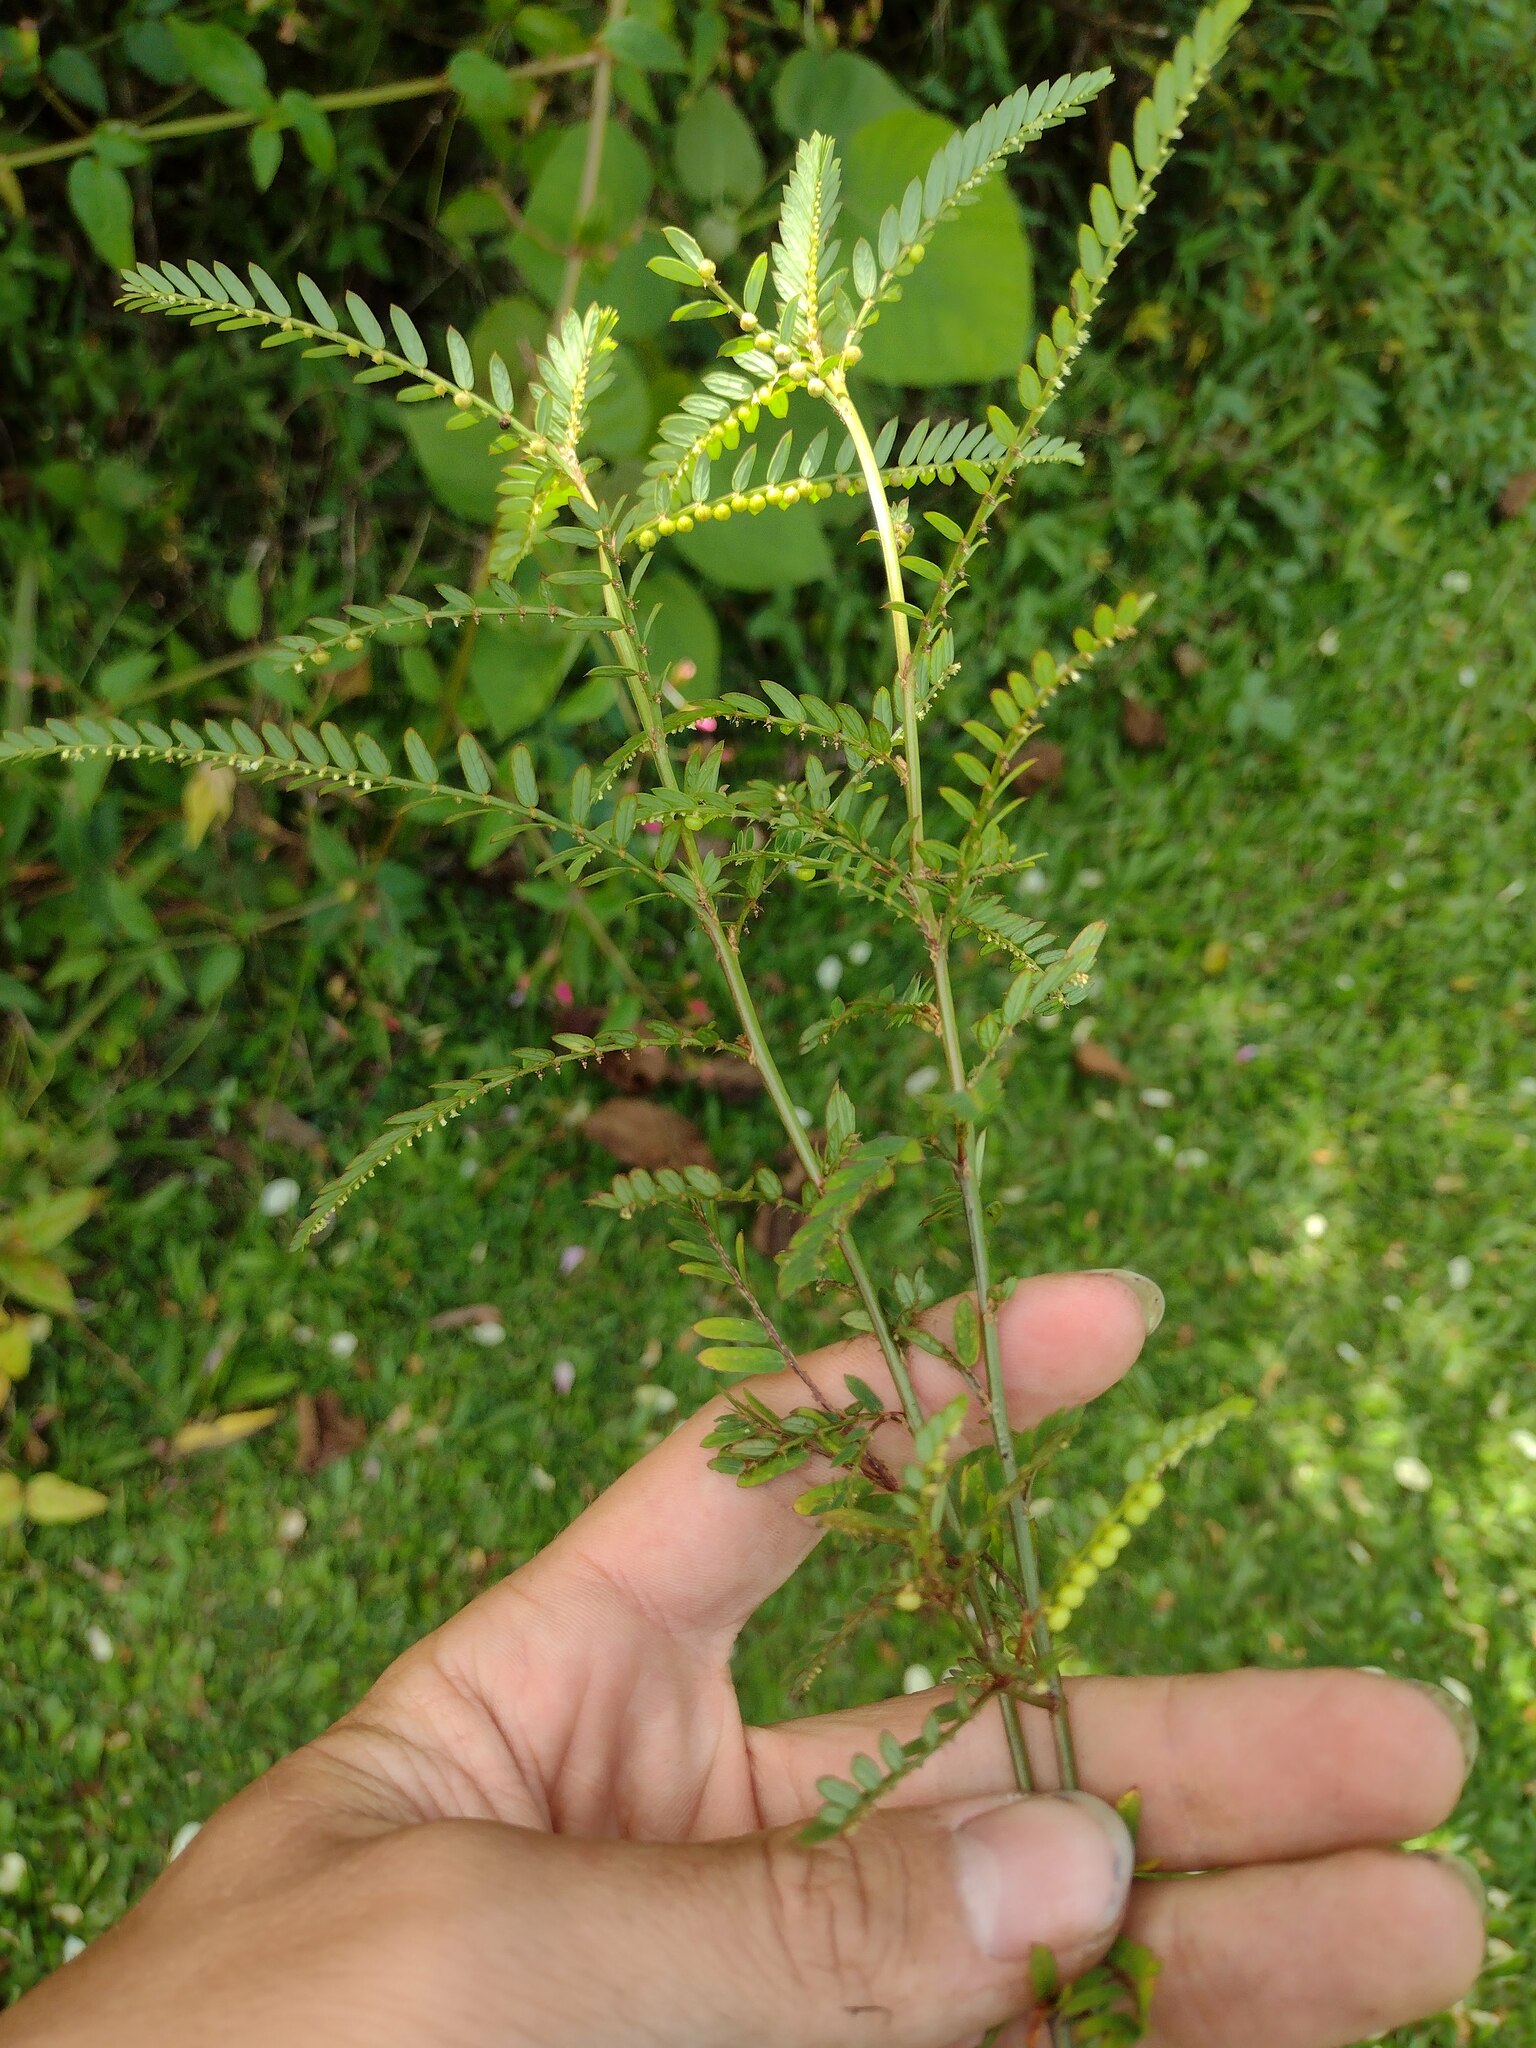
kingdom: Plantae
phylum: Tracheophyta
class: Magnoliopsida
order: Malpighiales
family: Phyllanthaceae
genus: Phyllanthus
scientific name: Phyllanthus urinaria
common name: Chamber bitter
